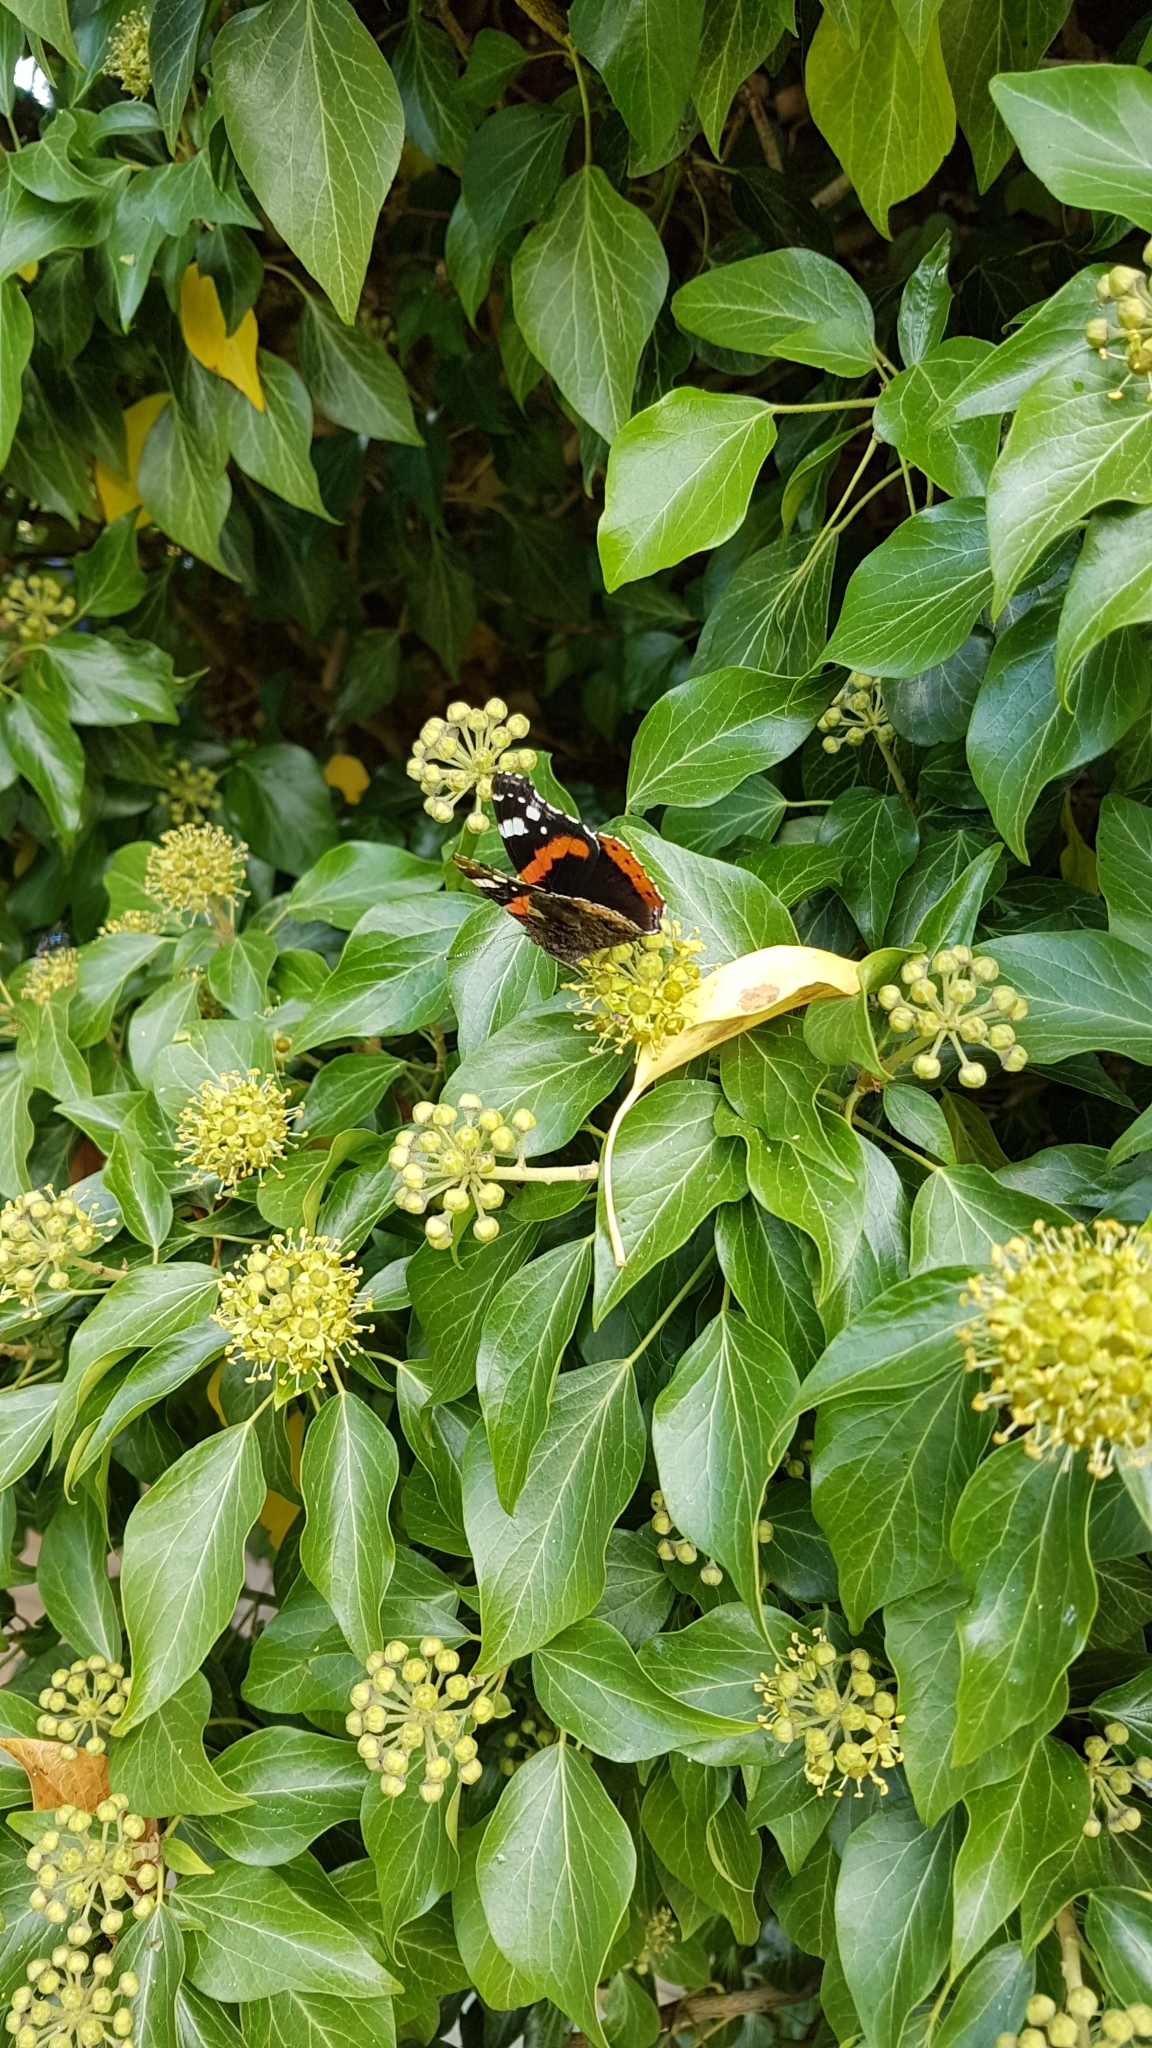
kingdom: Animalia
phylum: Arthropoda
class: Insecta
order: Lepidoptera
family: Nymphalidae
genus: Vanessa
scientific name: Vanessa atalanta
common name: Red admiral
